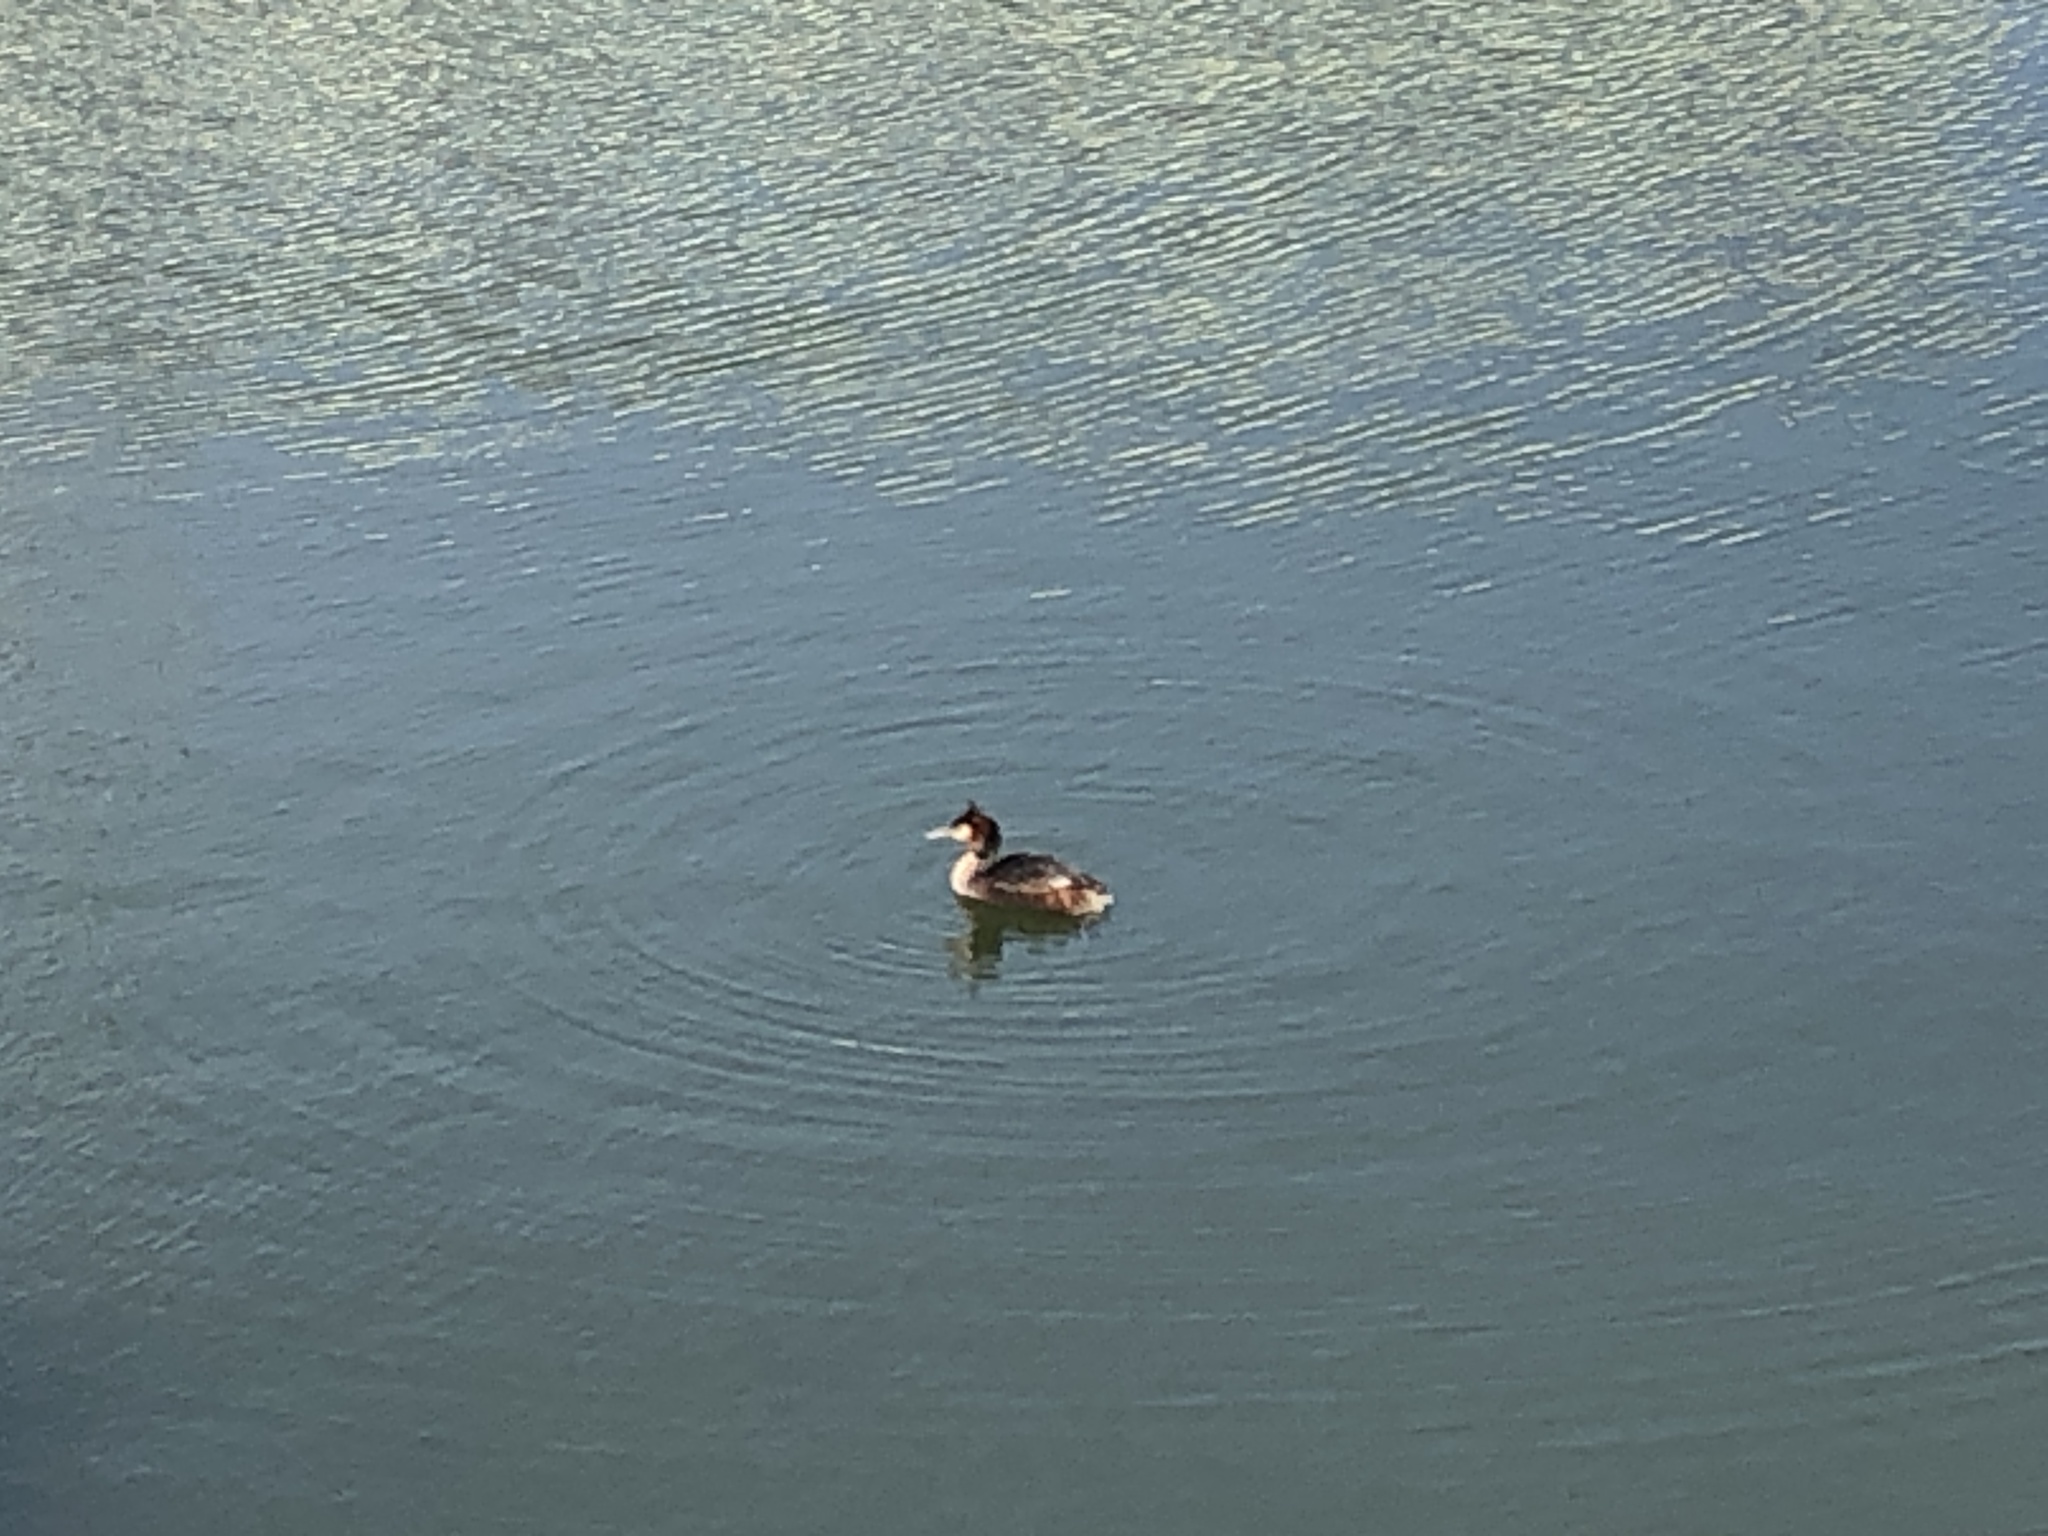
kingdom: Animalia
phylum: Chordata
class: Aves
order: Podicipediformes
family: Podicipedidae
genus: Podiceps
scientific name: Podiceps cristatus
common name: Great crested grebe
